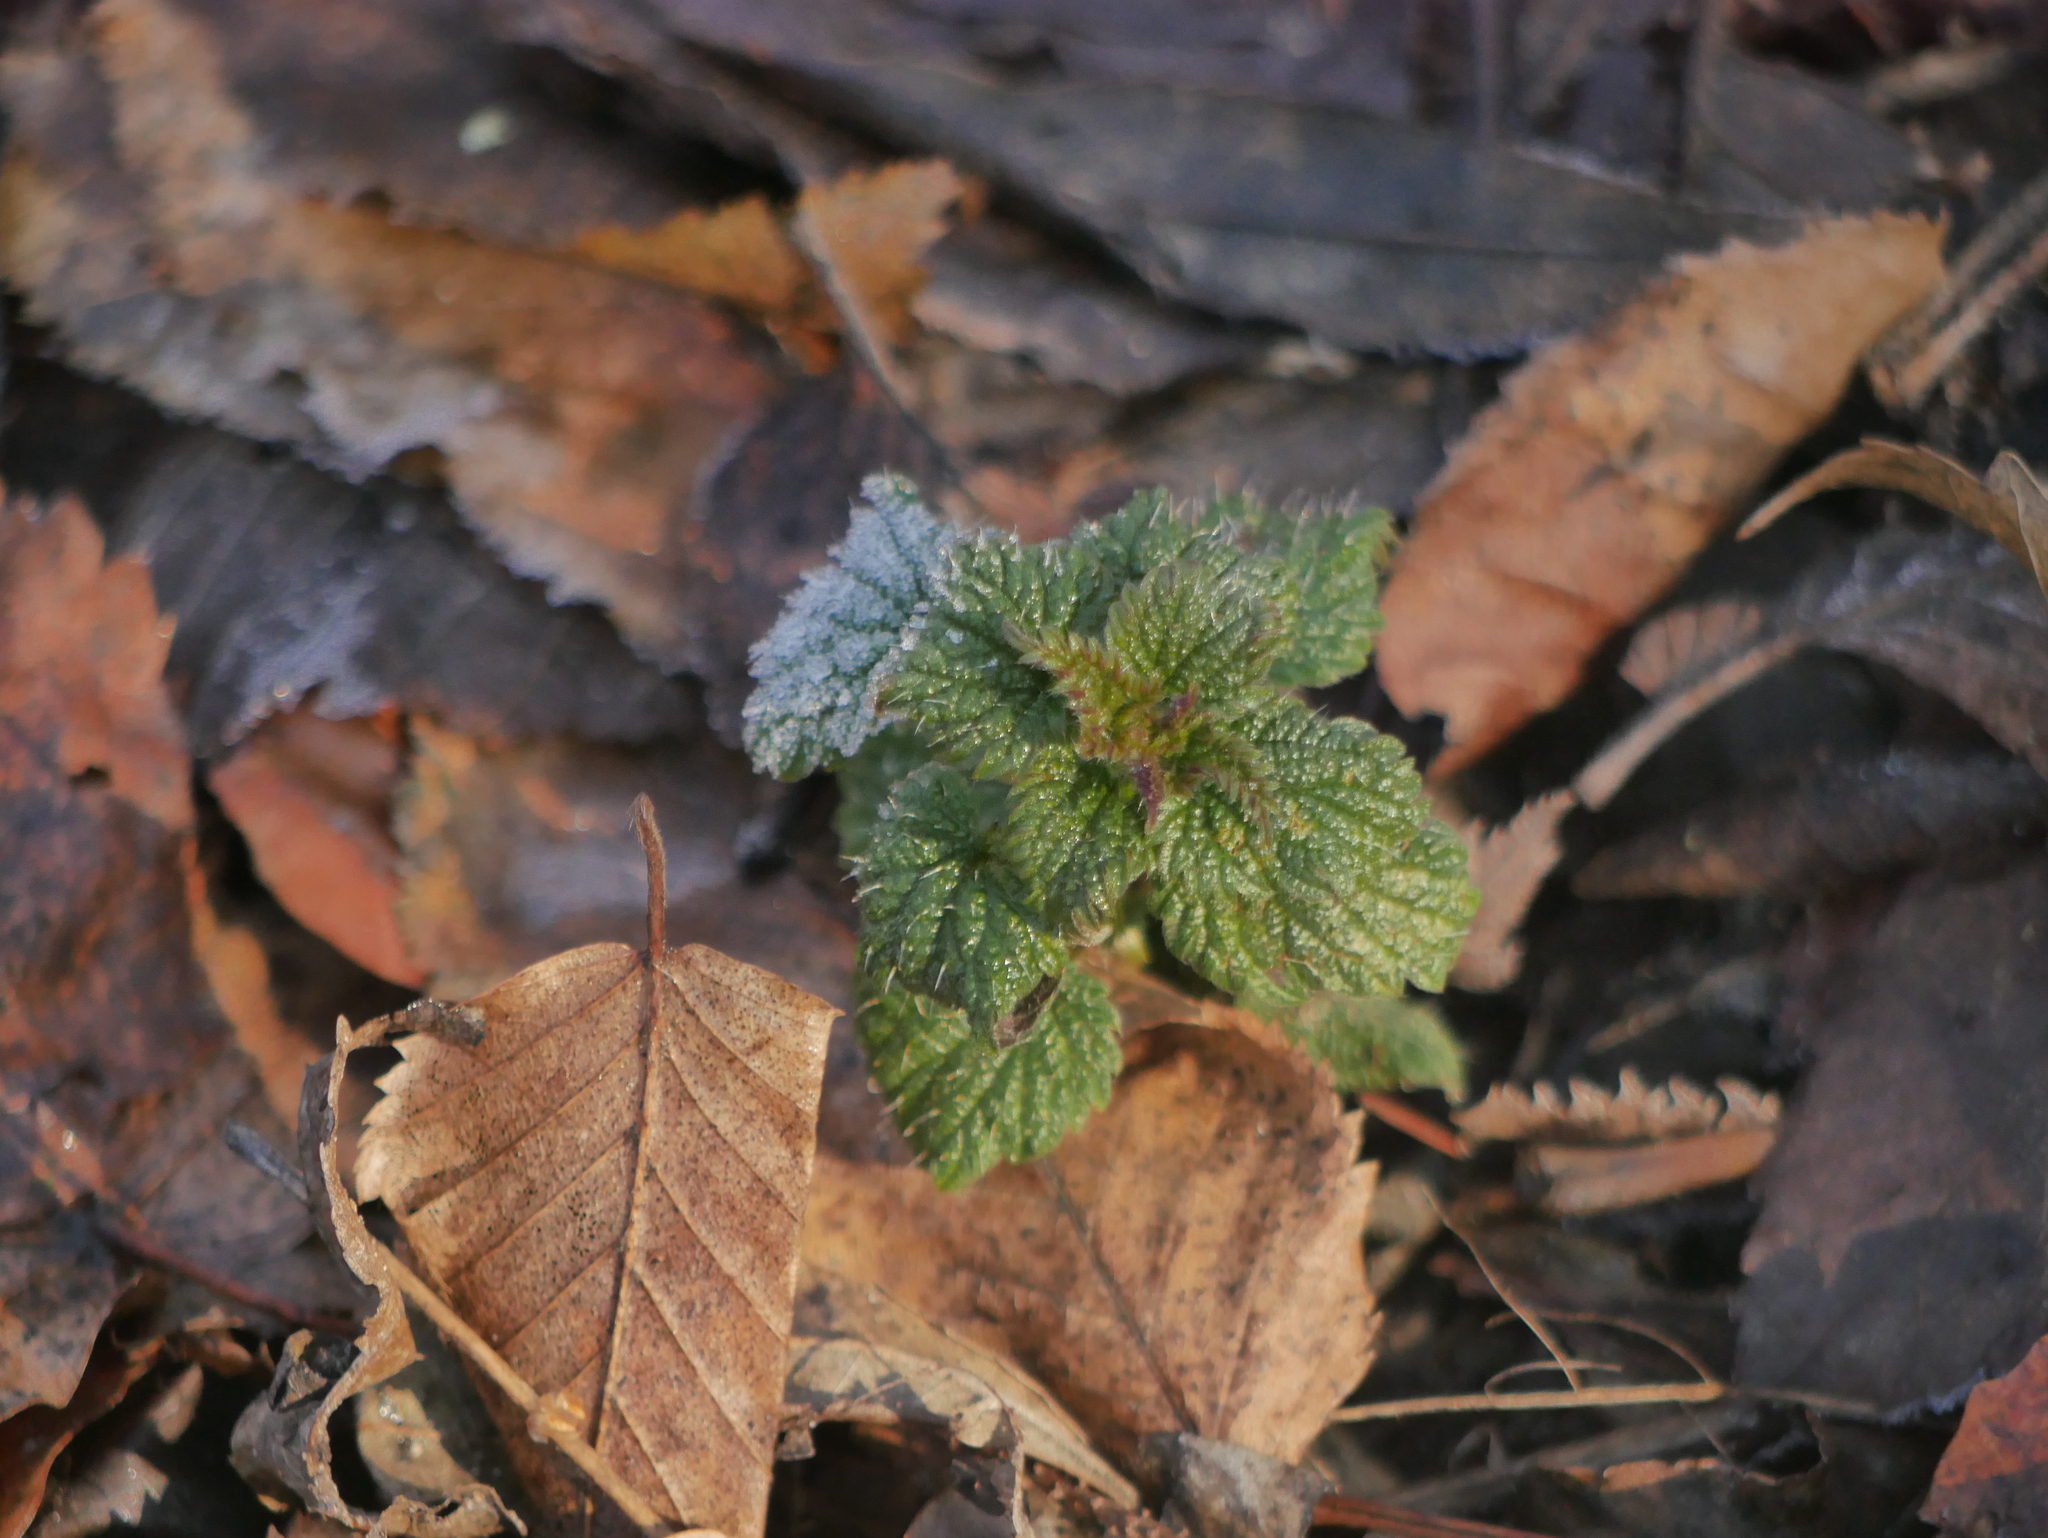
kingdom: Plantae
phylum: Tracheophyta
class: Magnoliopsida
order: Rosales
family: Urticaceae
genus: Urtica
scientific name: Urtica dioica
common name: Common nettle
